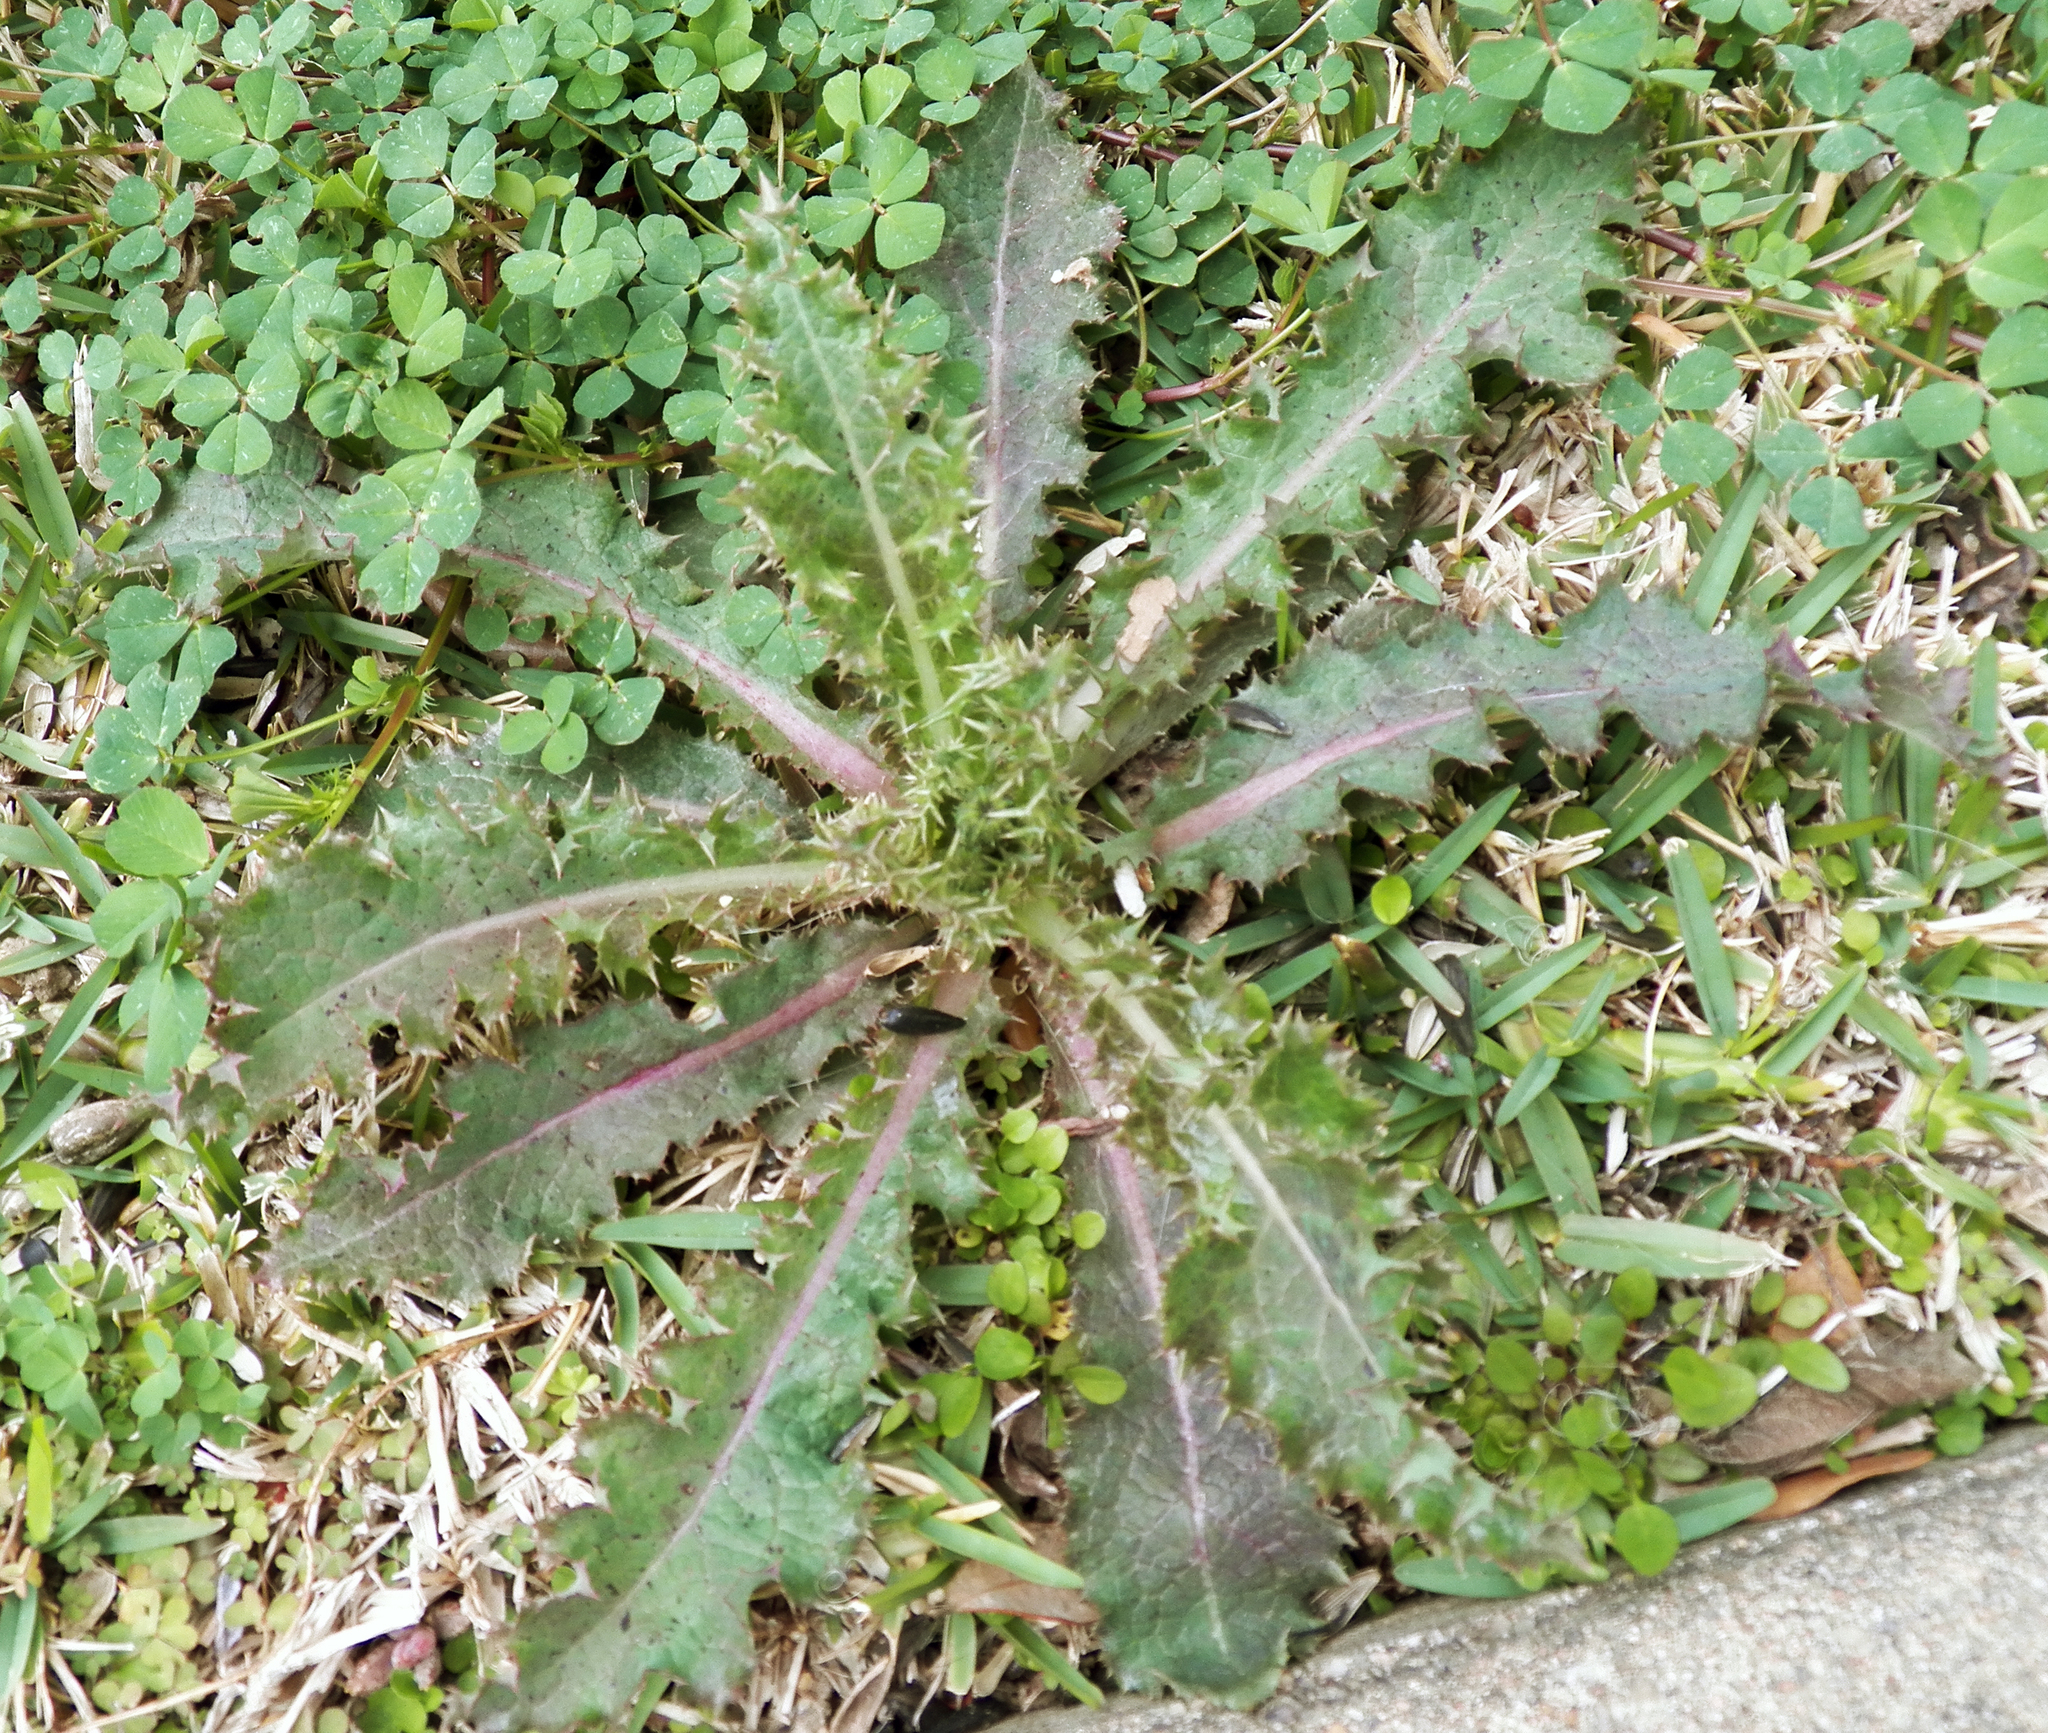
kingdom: Plantae
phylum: Tracheophyta
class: Magnoliopsida
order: Asterales
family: Asteraceae
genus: Sonchus
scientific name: Sonchus asper
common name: Prickly sow-thistle
